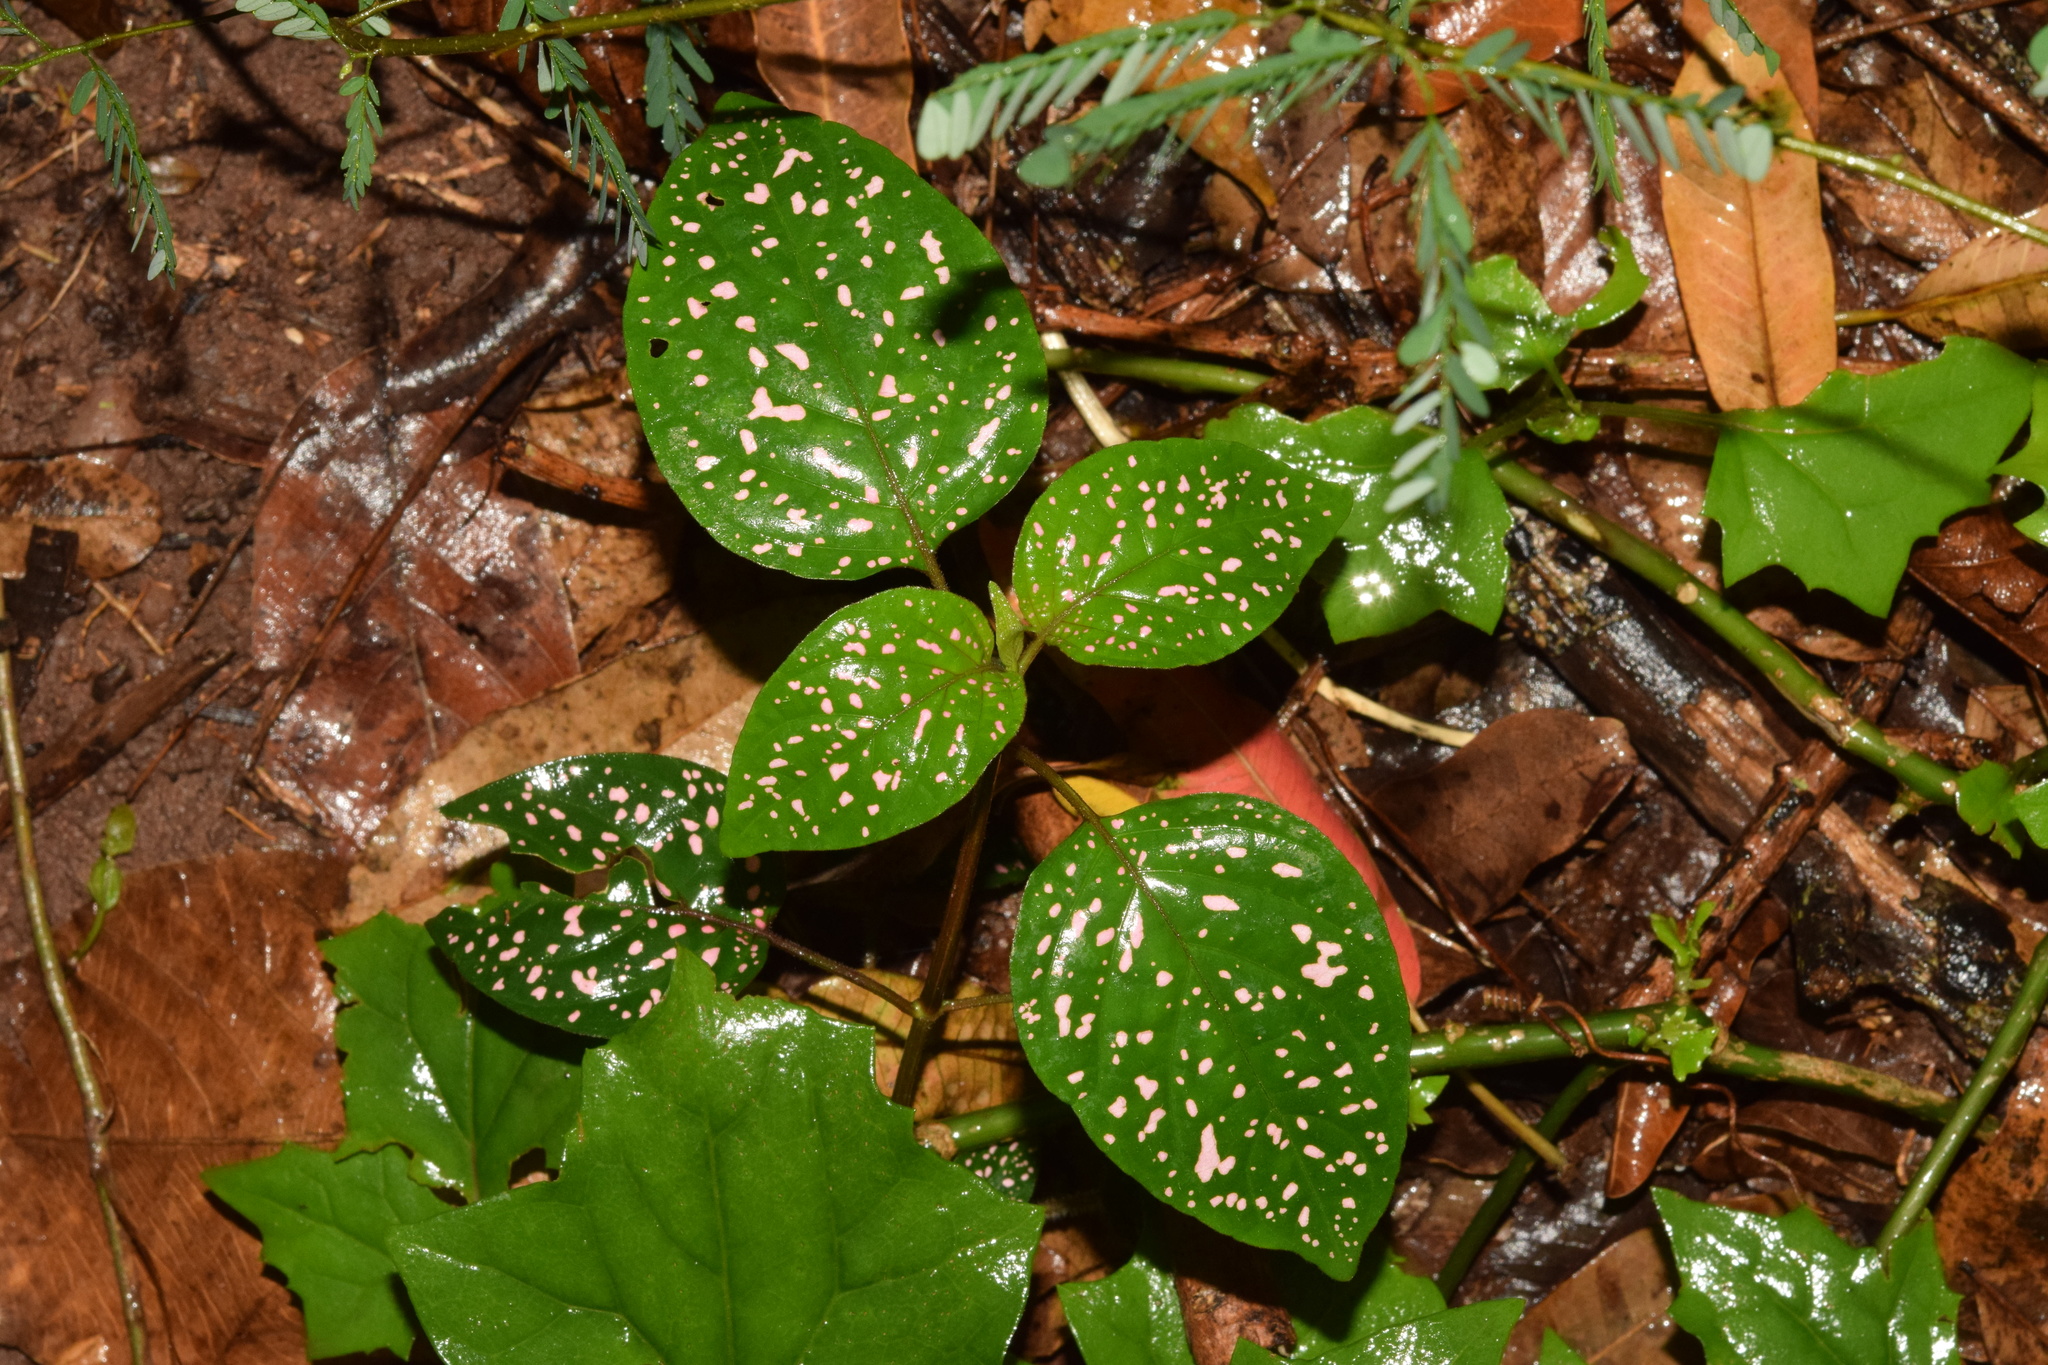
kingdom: Plantae
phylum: Tracheophyta
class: Magnoliopsida
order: Lamiales
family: Acanthaceae
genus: Hypoestes
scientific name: Hypoestes phyllostachya
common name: Polkadot-plant
